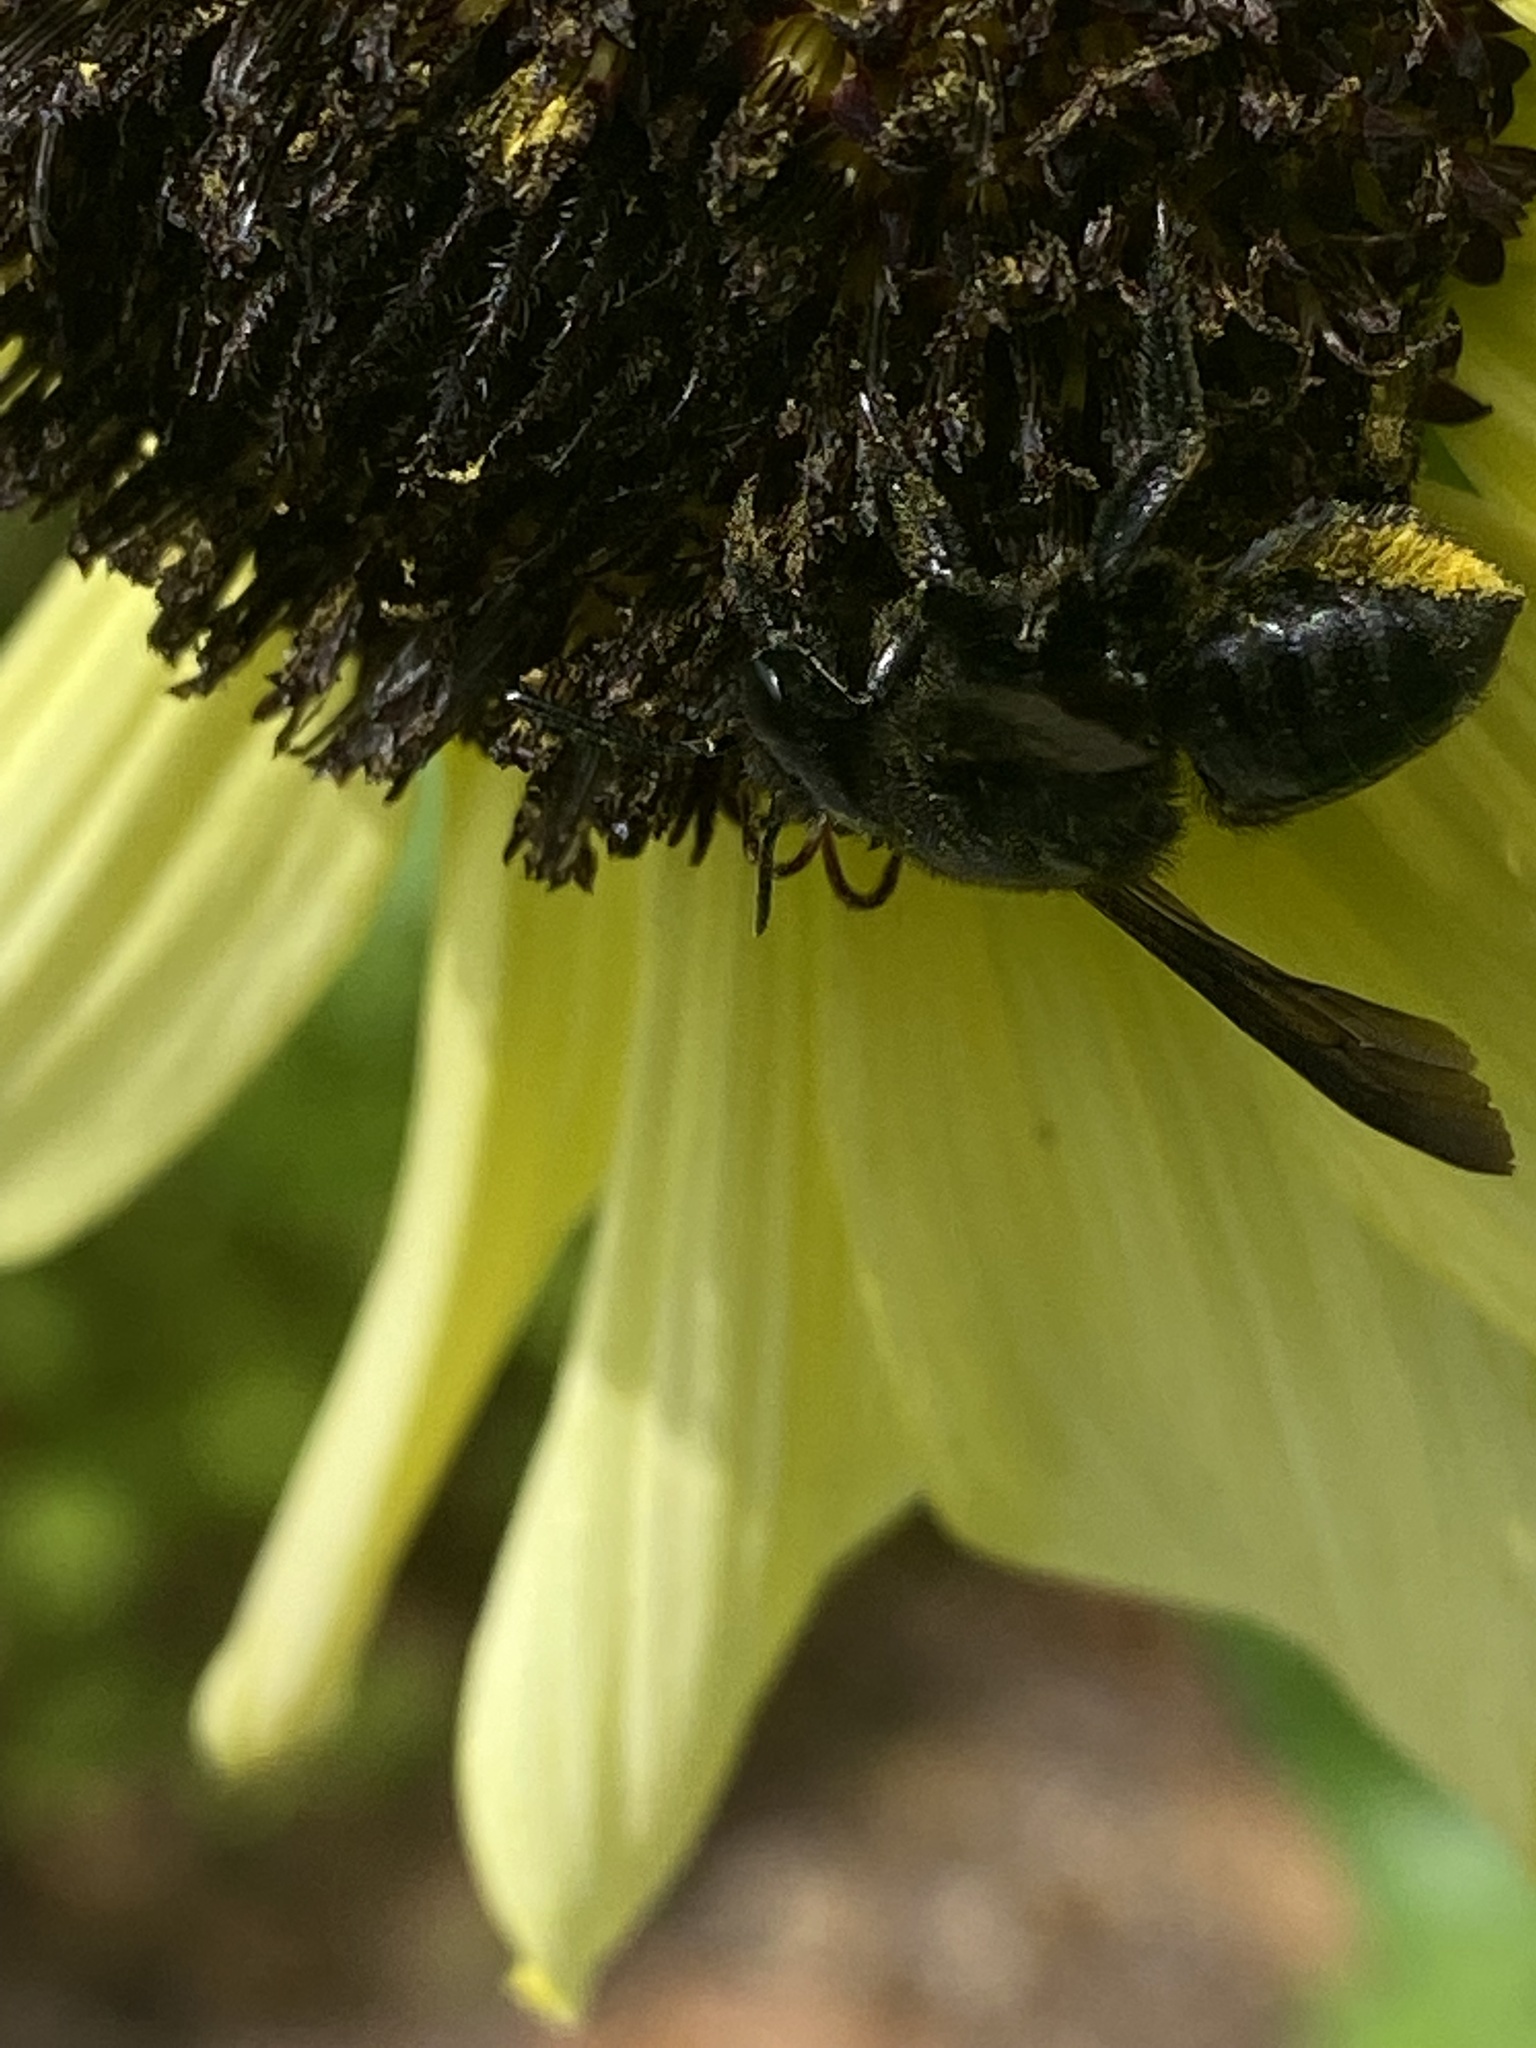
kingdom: Animalia
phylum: Arthropoda
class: Insecta
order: Hymenoptera
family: Megachilidae
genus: Megachile
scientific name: Megachile xylocopoides
